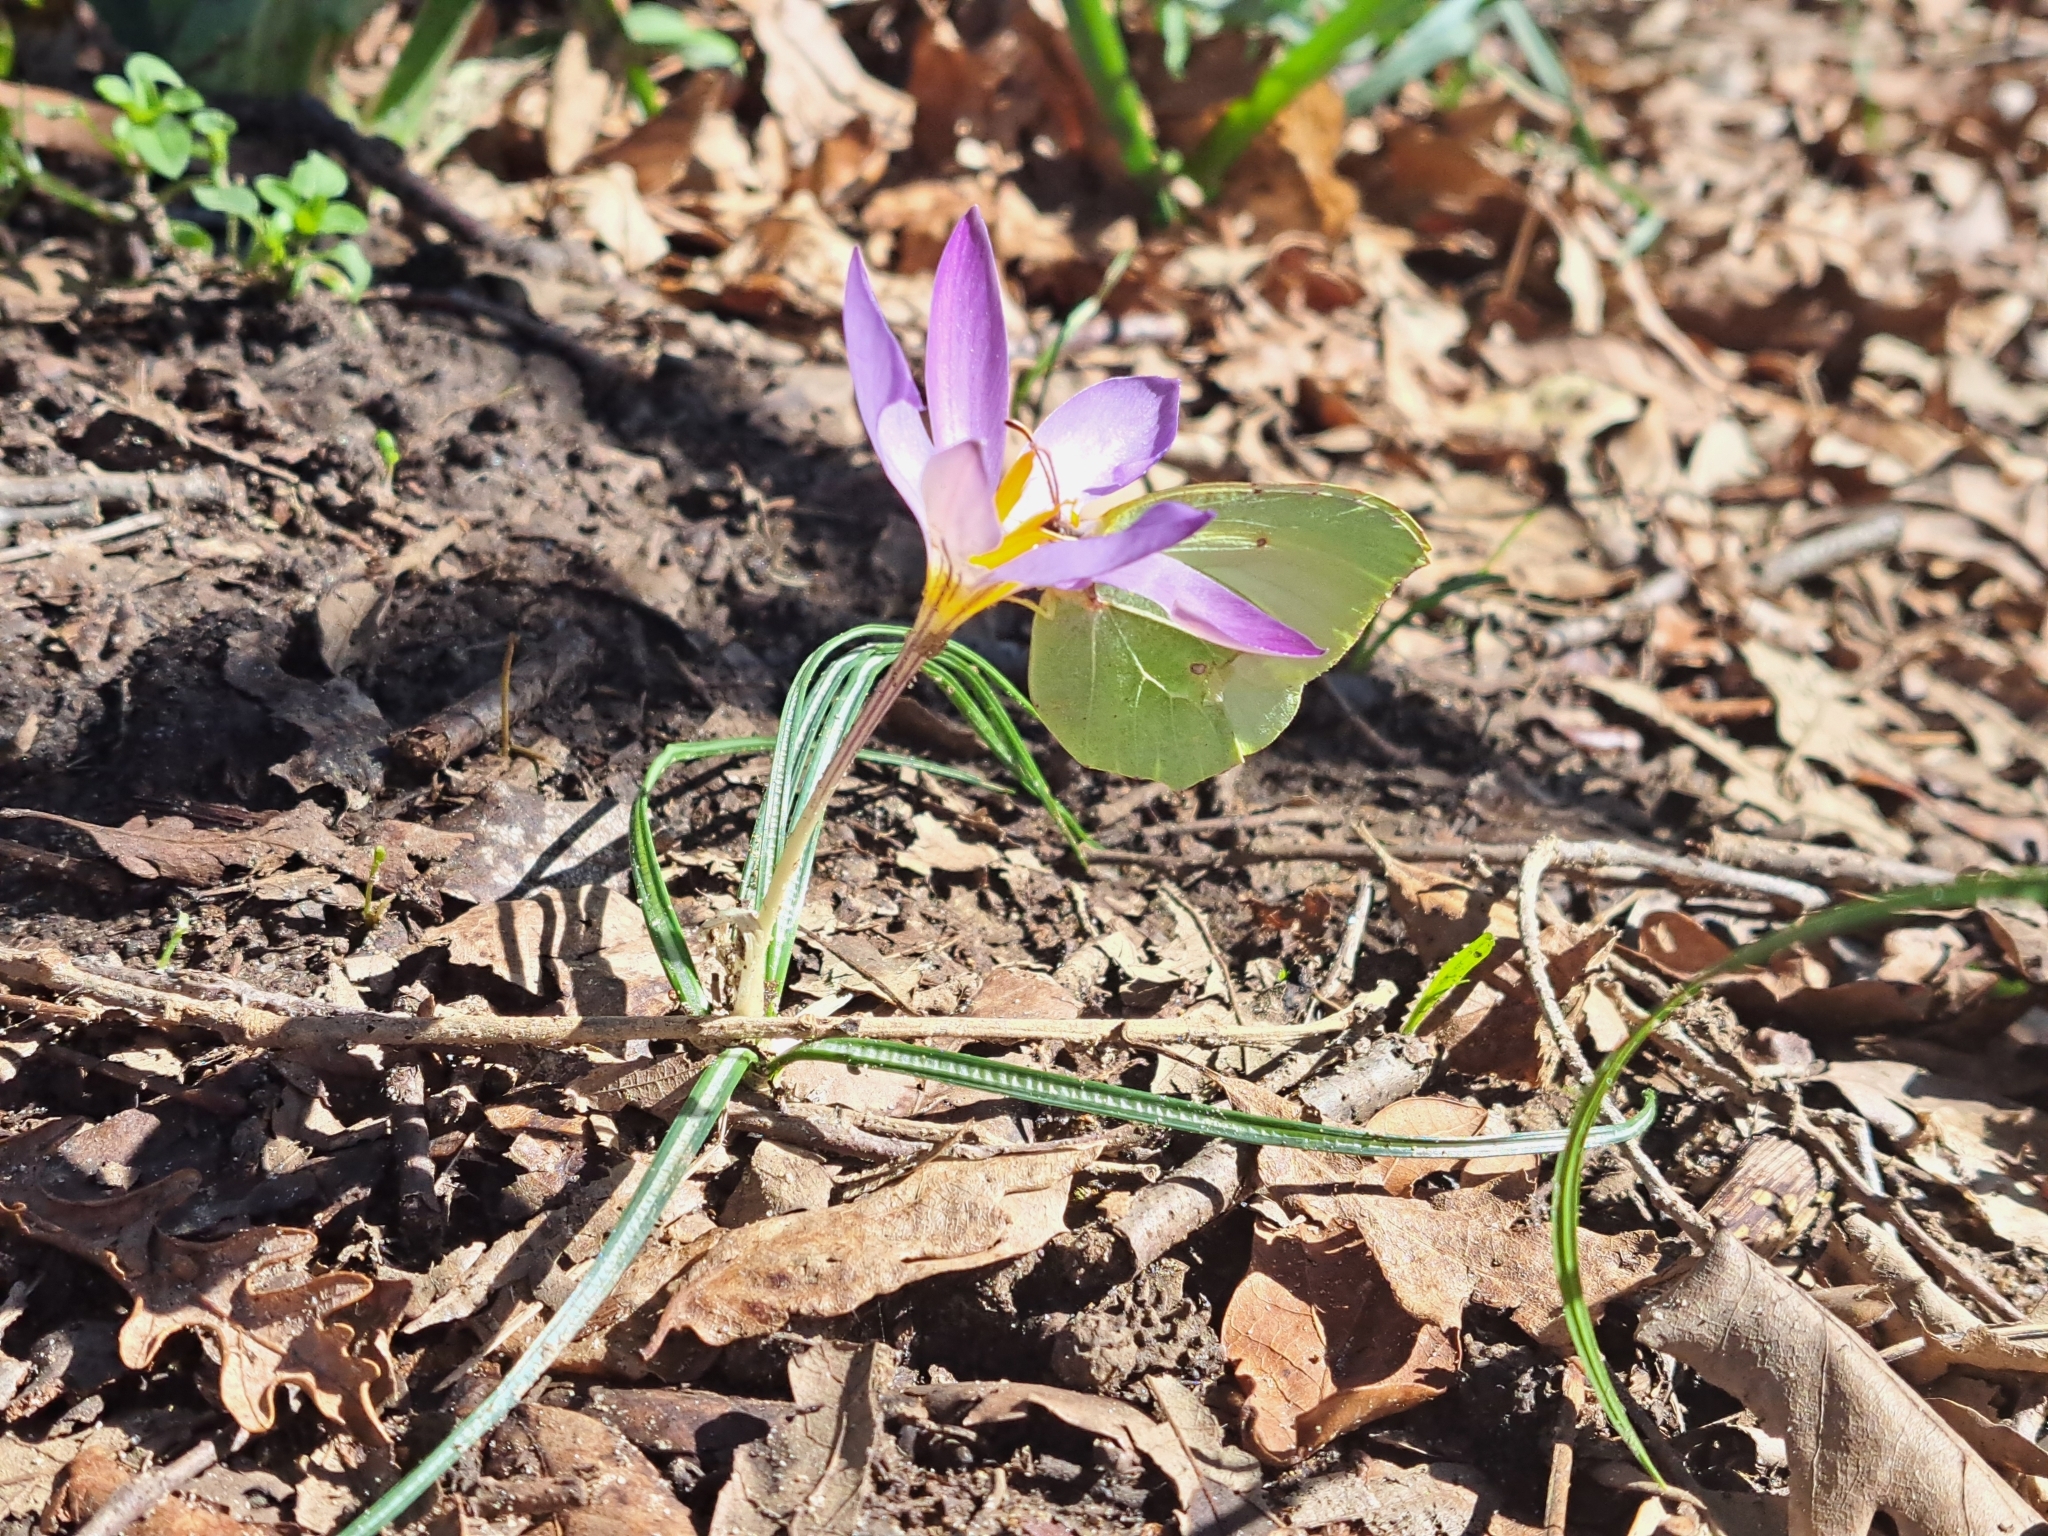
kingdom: Animalia
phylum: Arthropoda
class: Insecta
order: Lepidoptera
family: Pieridae
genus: Gonepteryx
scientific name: Gonepteryx rhamni
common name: Brimstone
